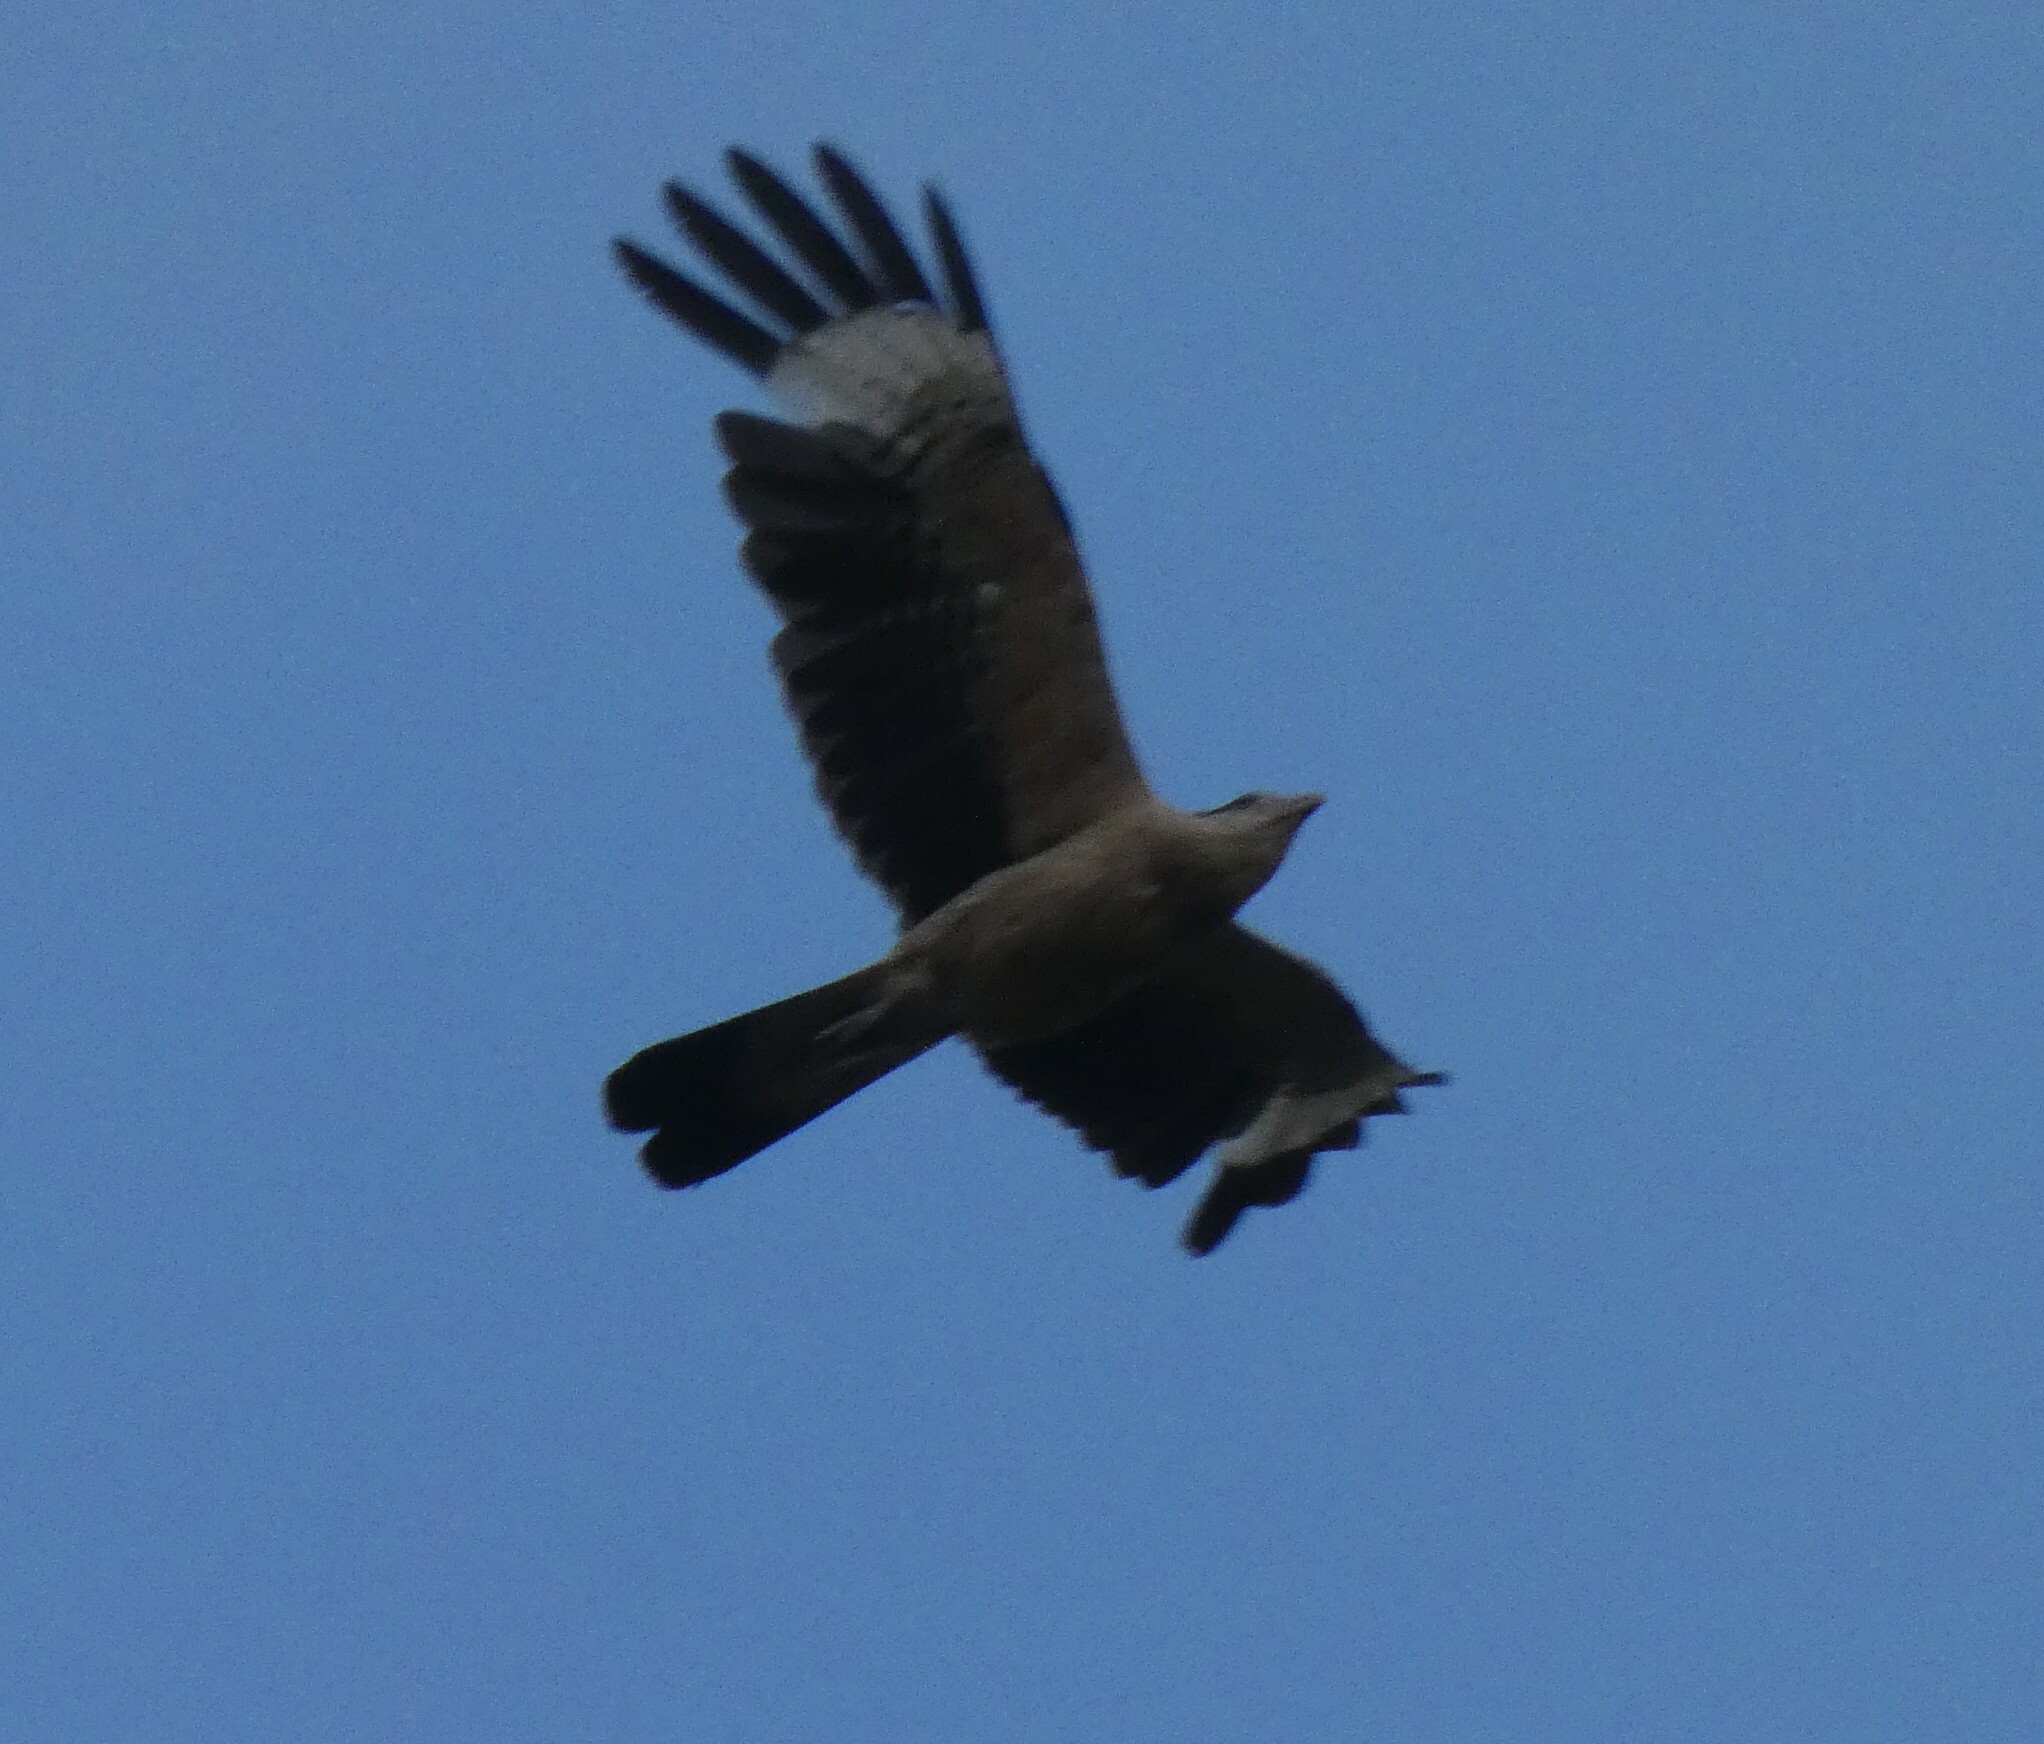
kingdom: Animalia
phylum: Chordata
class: Aves
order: Falconiformes
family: Falconidae
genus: Daptrius
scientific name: Daptrius
